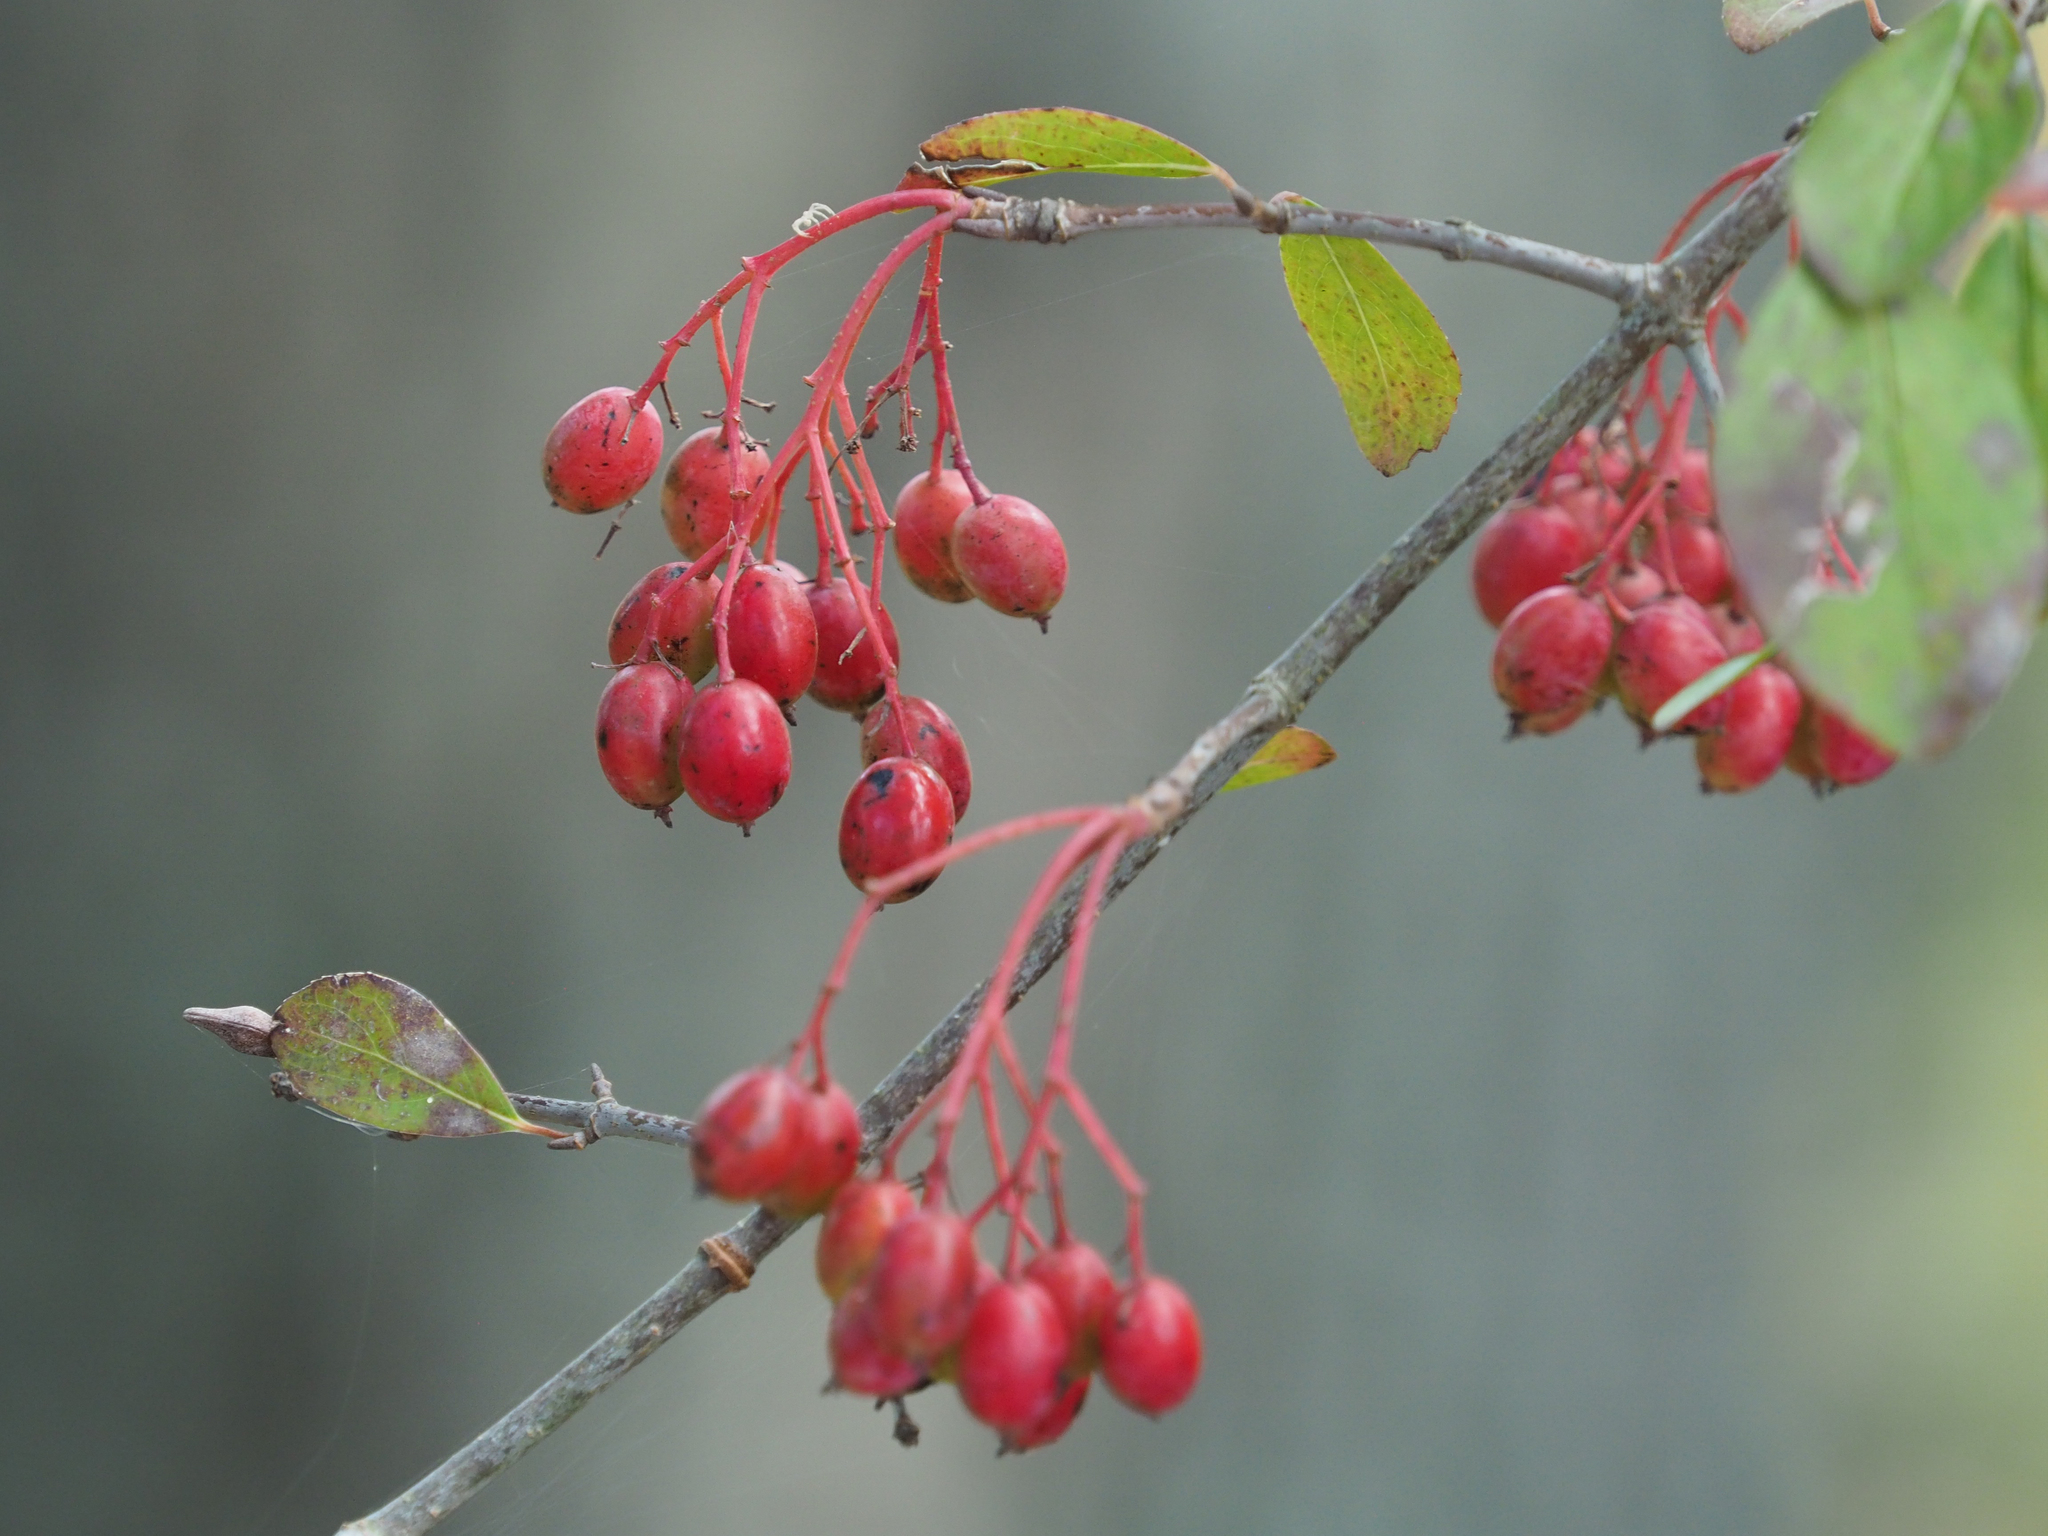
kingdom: Plantae
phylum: Tracheophyta
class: Magnoliopsida
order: Dipsacales
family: Viburnaceae
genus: Viburnum
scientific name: Viburnum prunifolium
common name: Black haw
